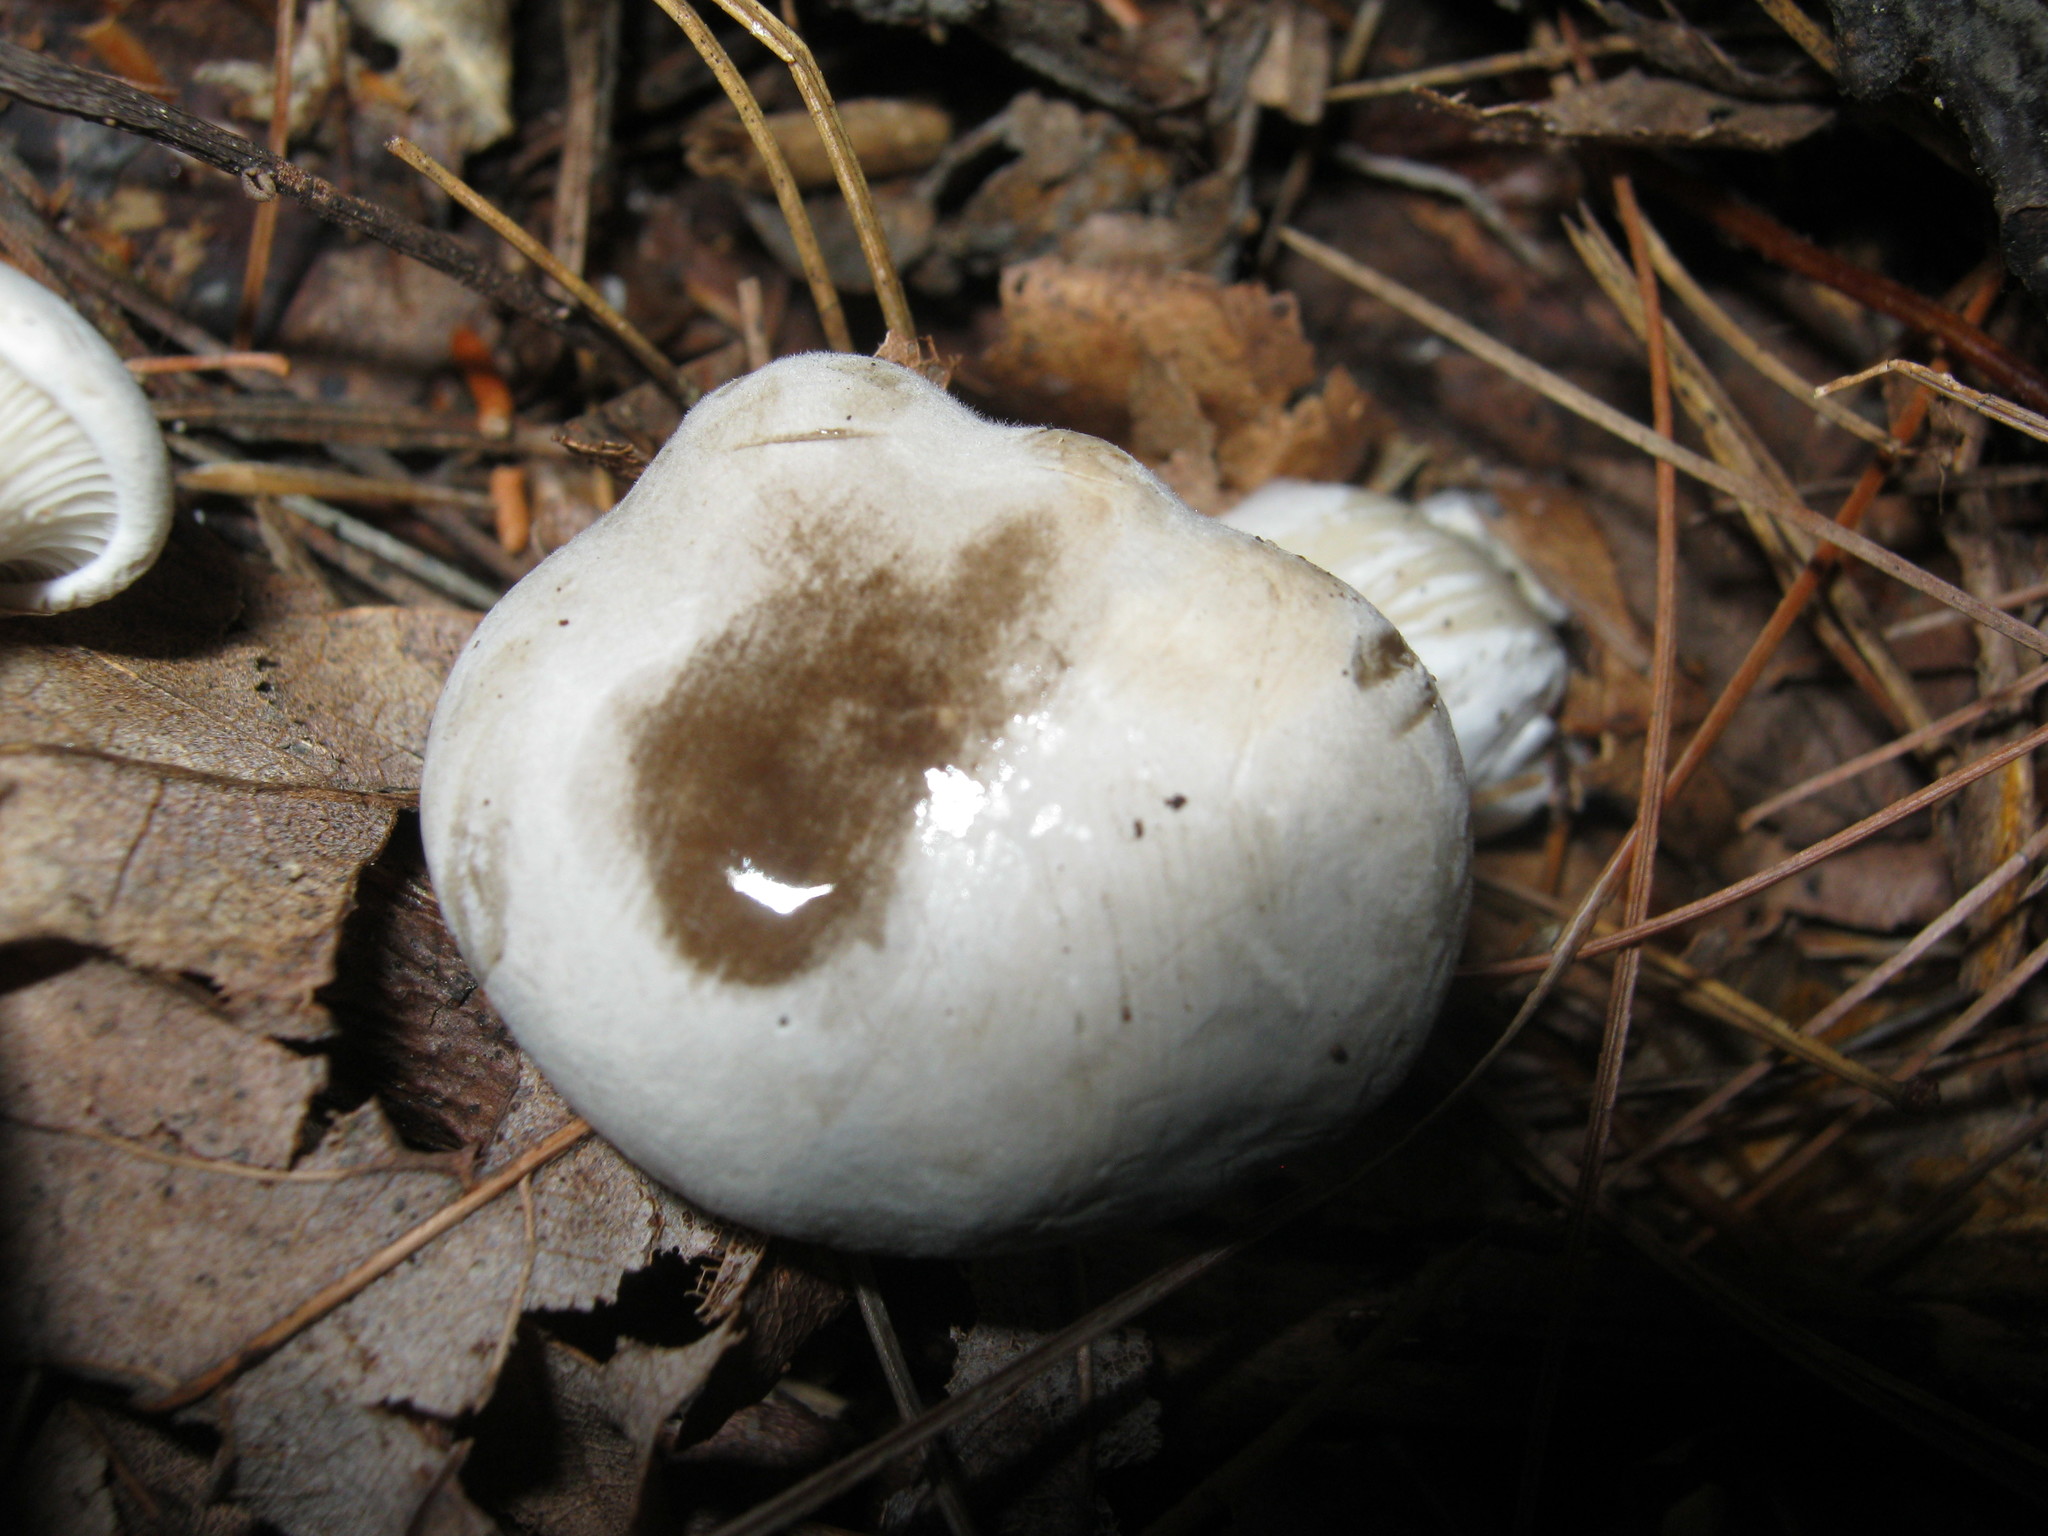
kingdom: Fungi
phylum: Basidiomycota
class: Agaricomycetes
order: Agaricales
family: Entolomataceae
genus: Entoloma
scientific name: Entoloma abortivum
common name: Aborted entoloma
